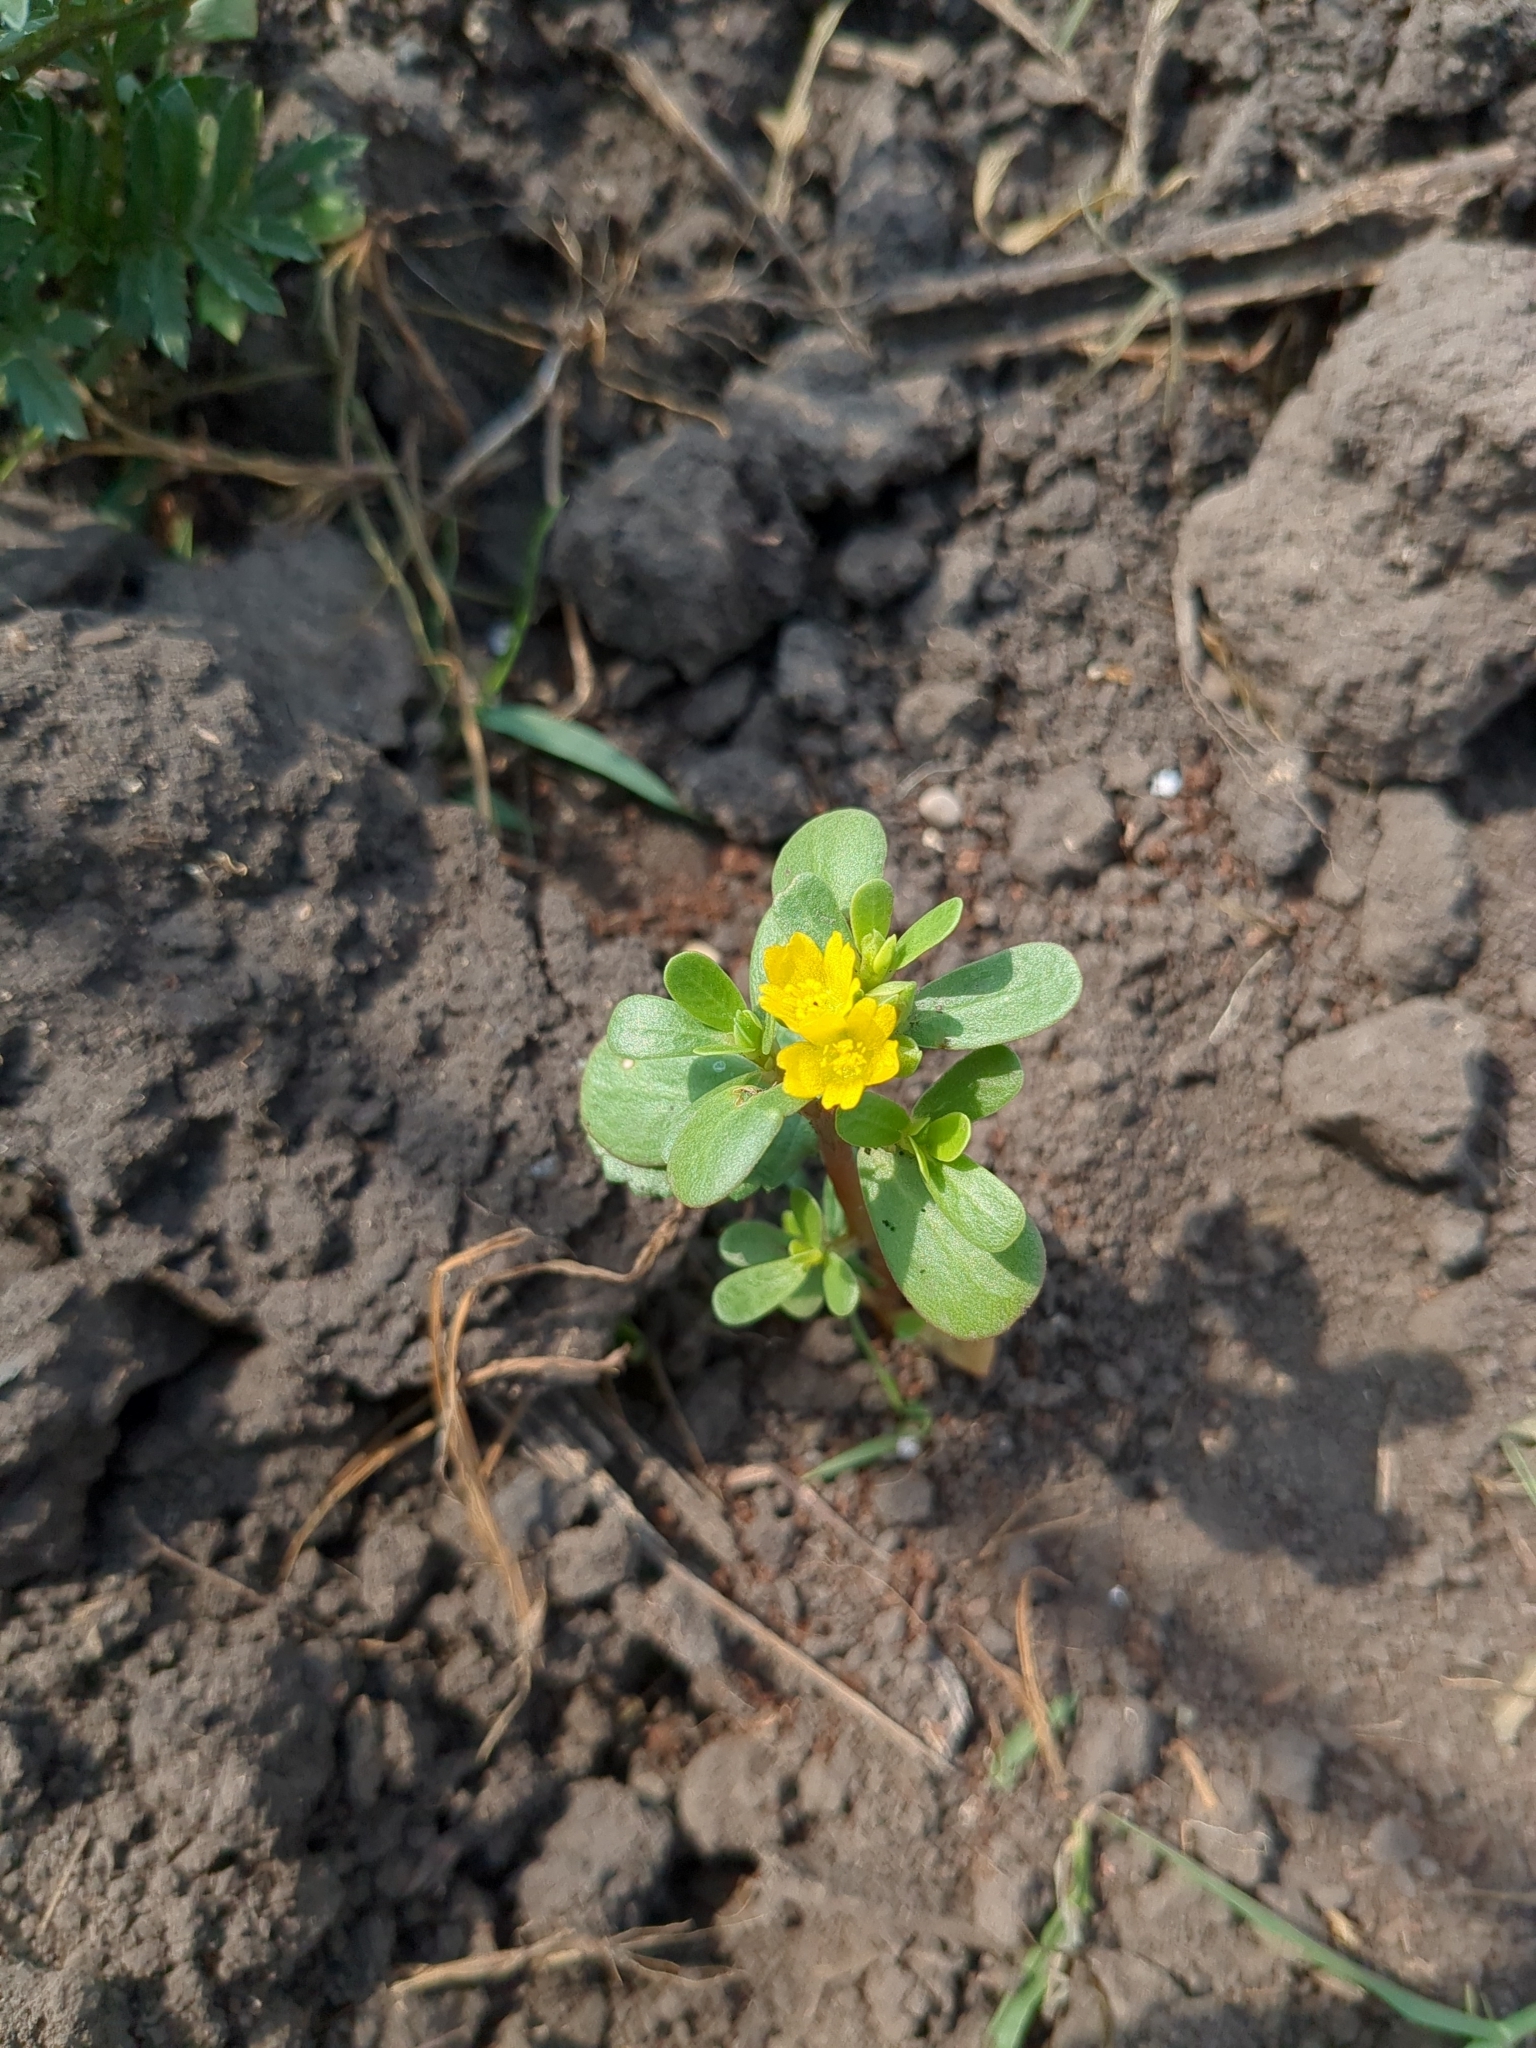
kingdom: Plantae
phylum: Tracheophyta
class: Magnoliopsida
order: Caryophyllales
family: Portulacaceae
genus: Portulaca
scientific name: Portulaca oleracea
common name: Common purslane
